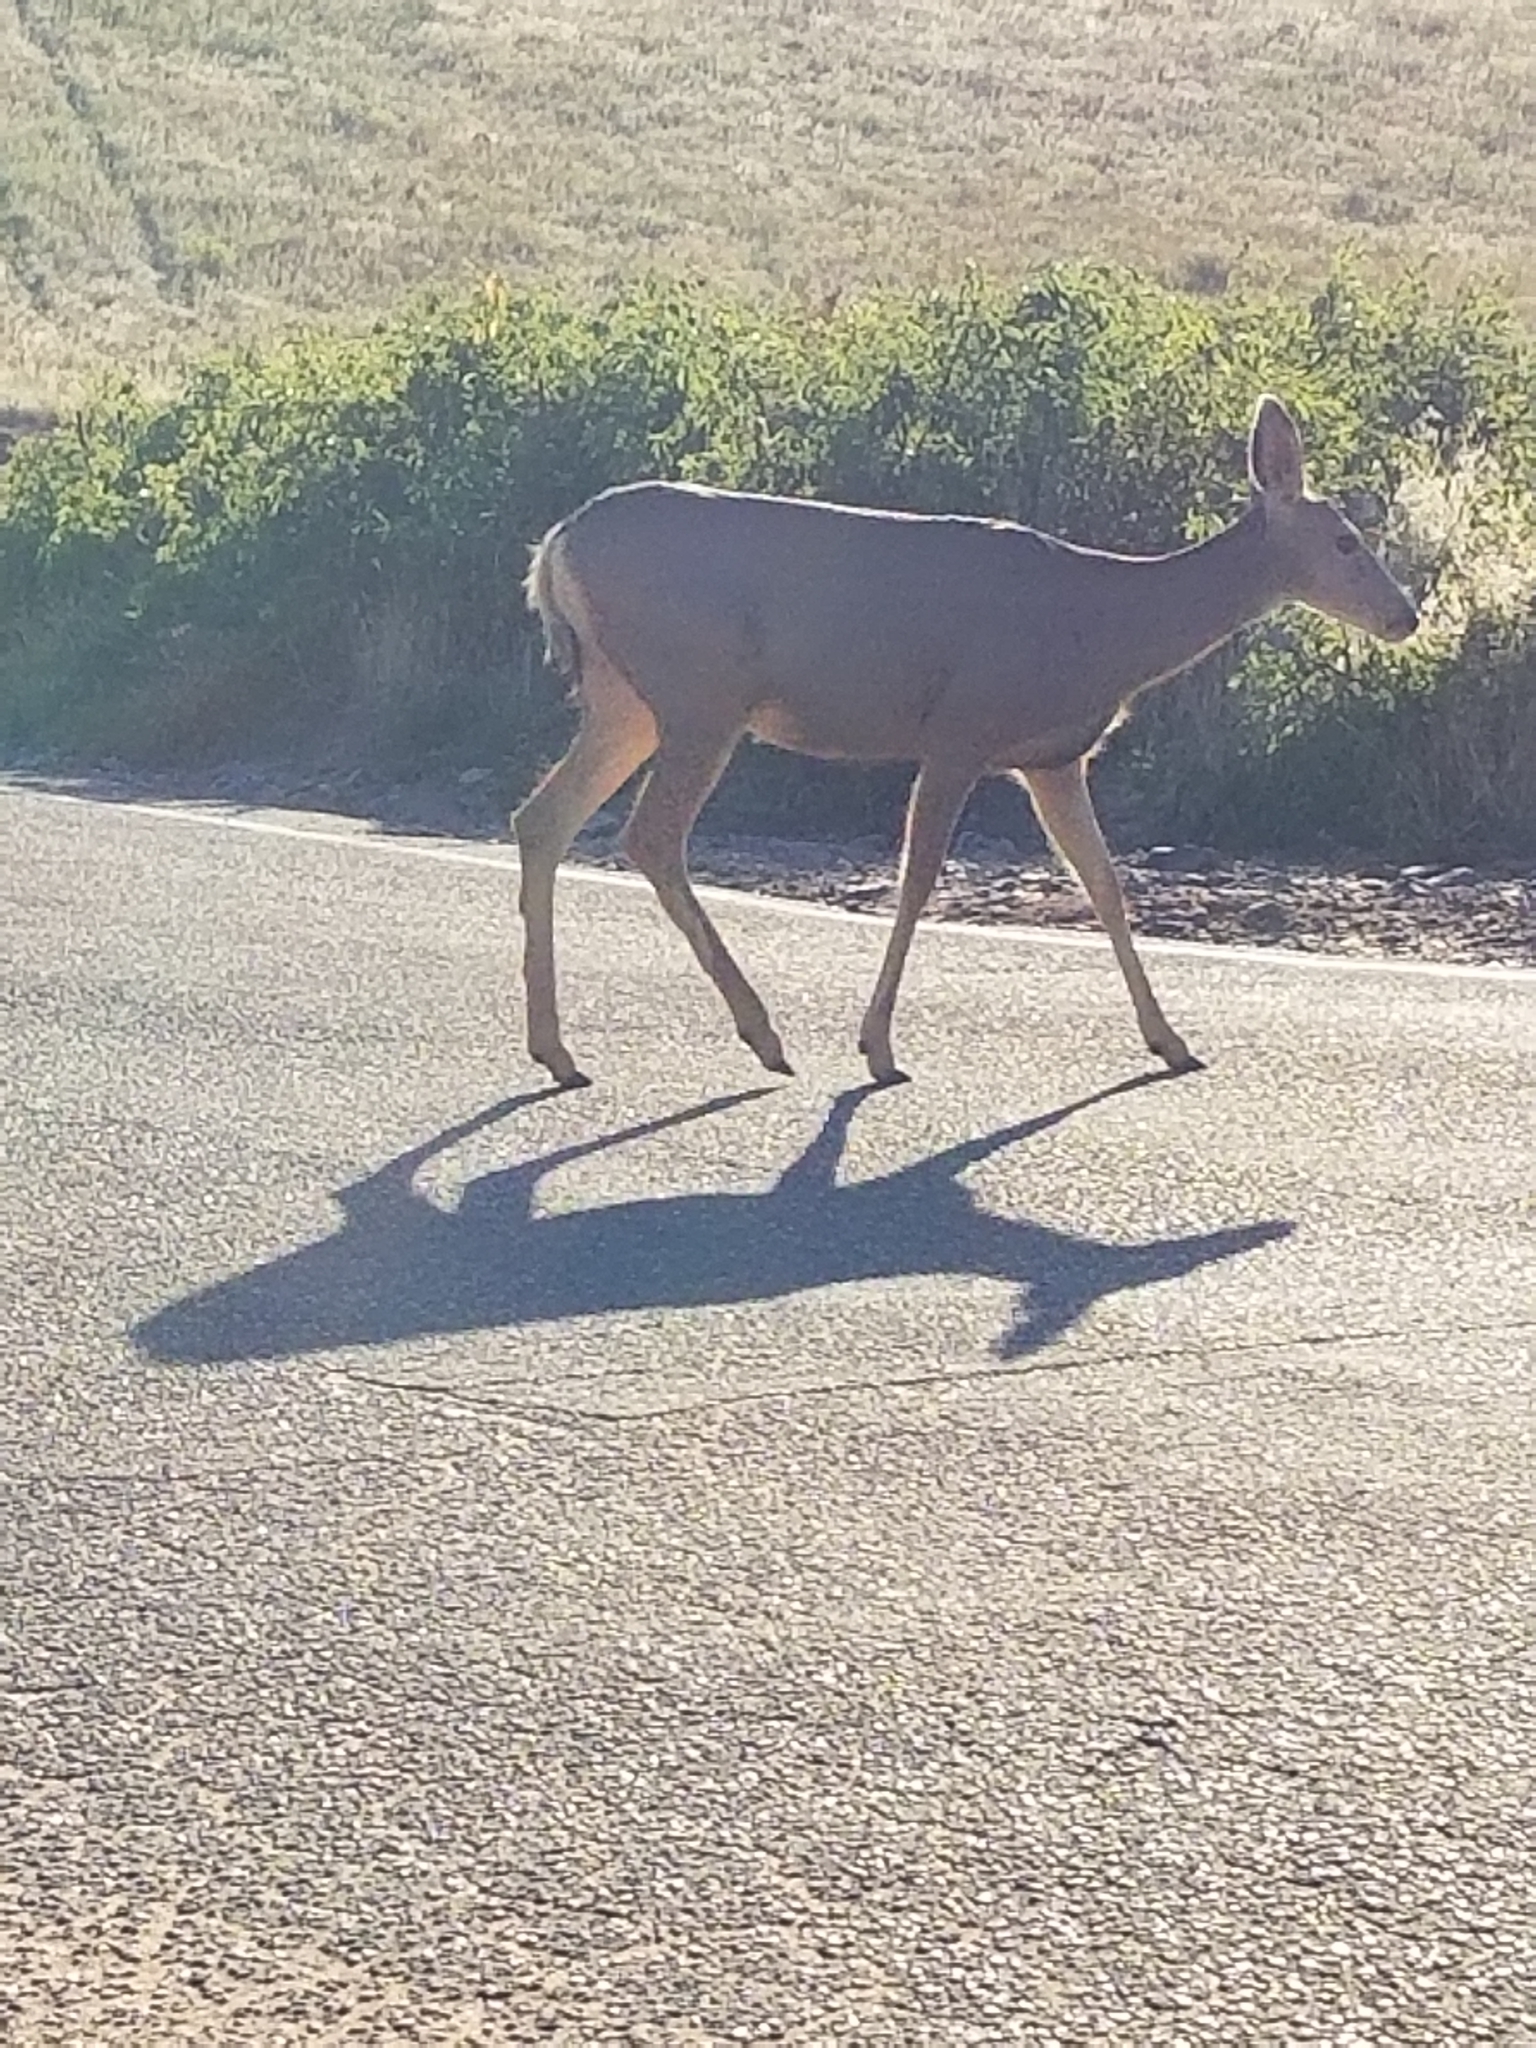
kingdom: Animalia
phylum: Chordata
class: Mammalia
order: Artiodactyla
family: Cervidae
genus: Odocoileus
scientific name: Odocoileus hemionus
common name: Mule deer
